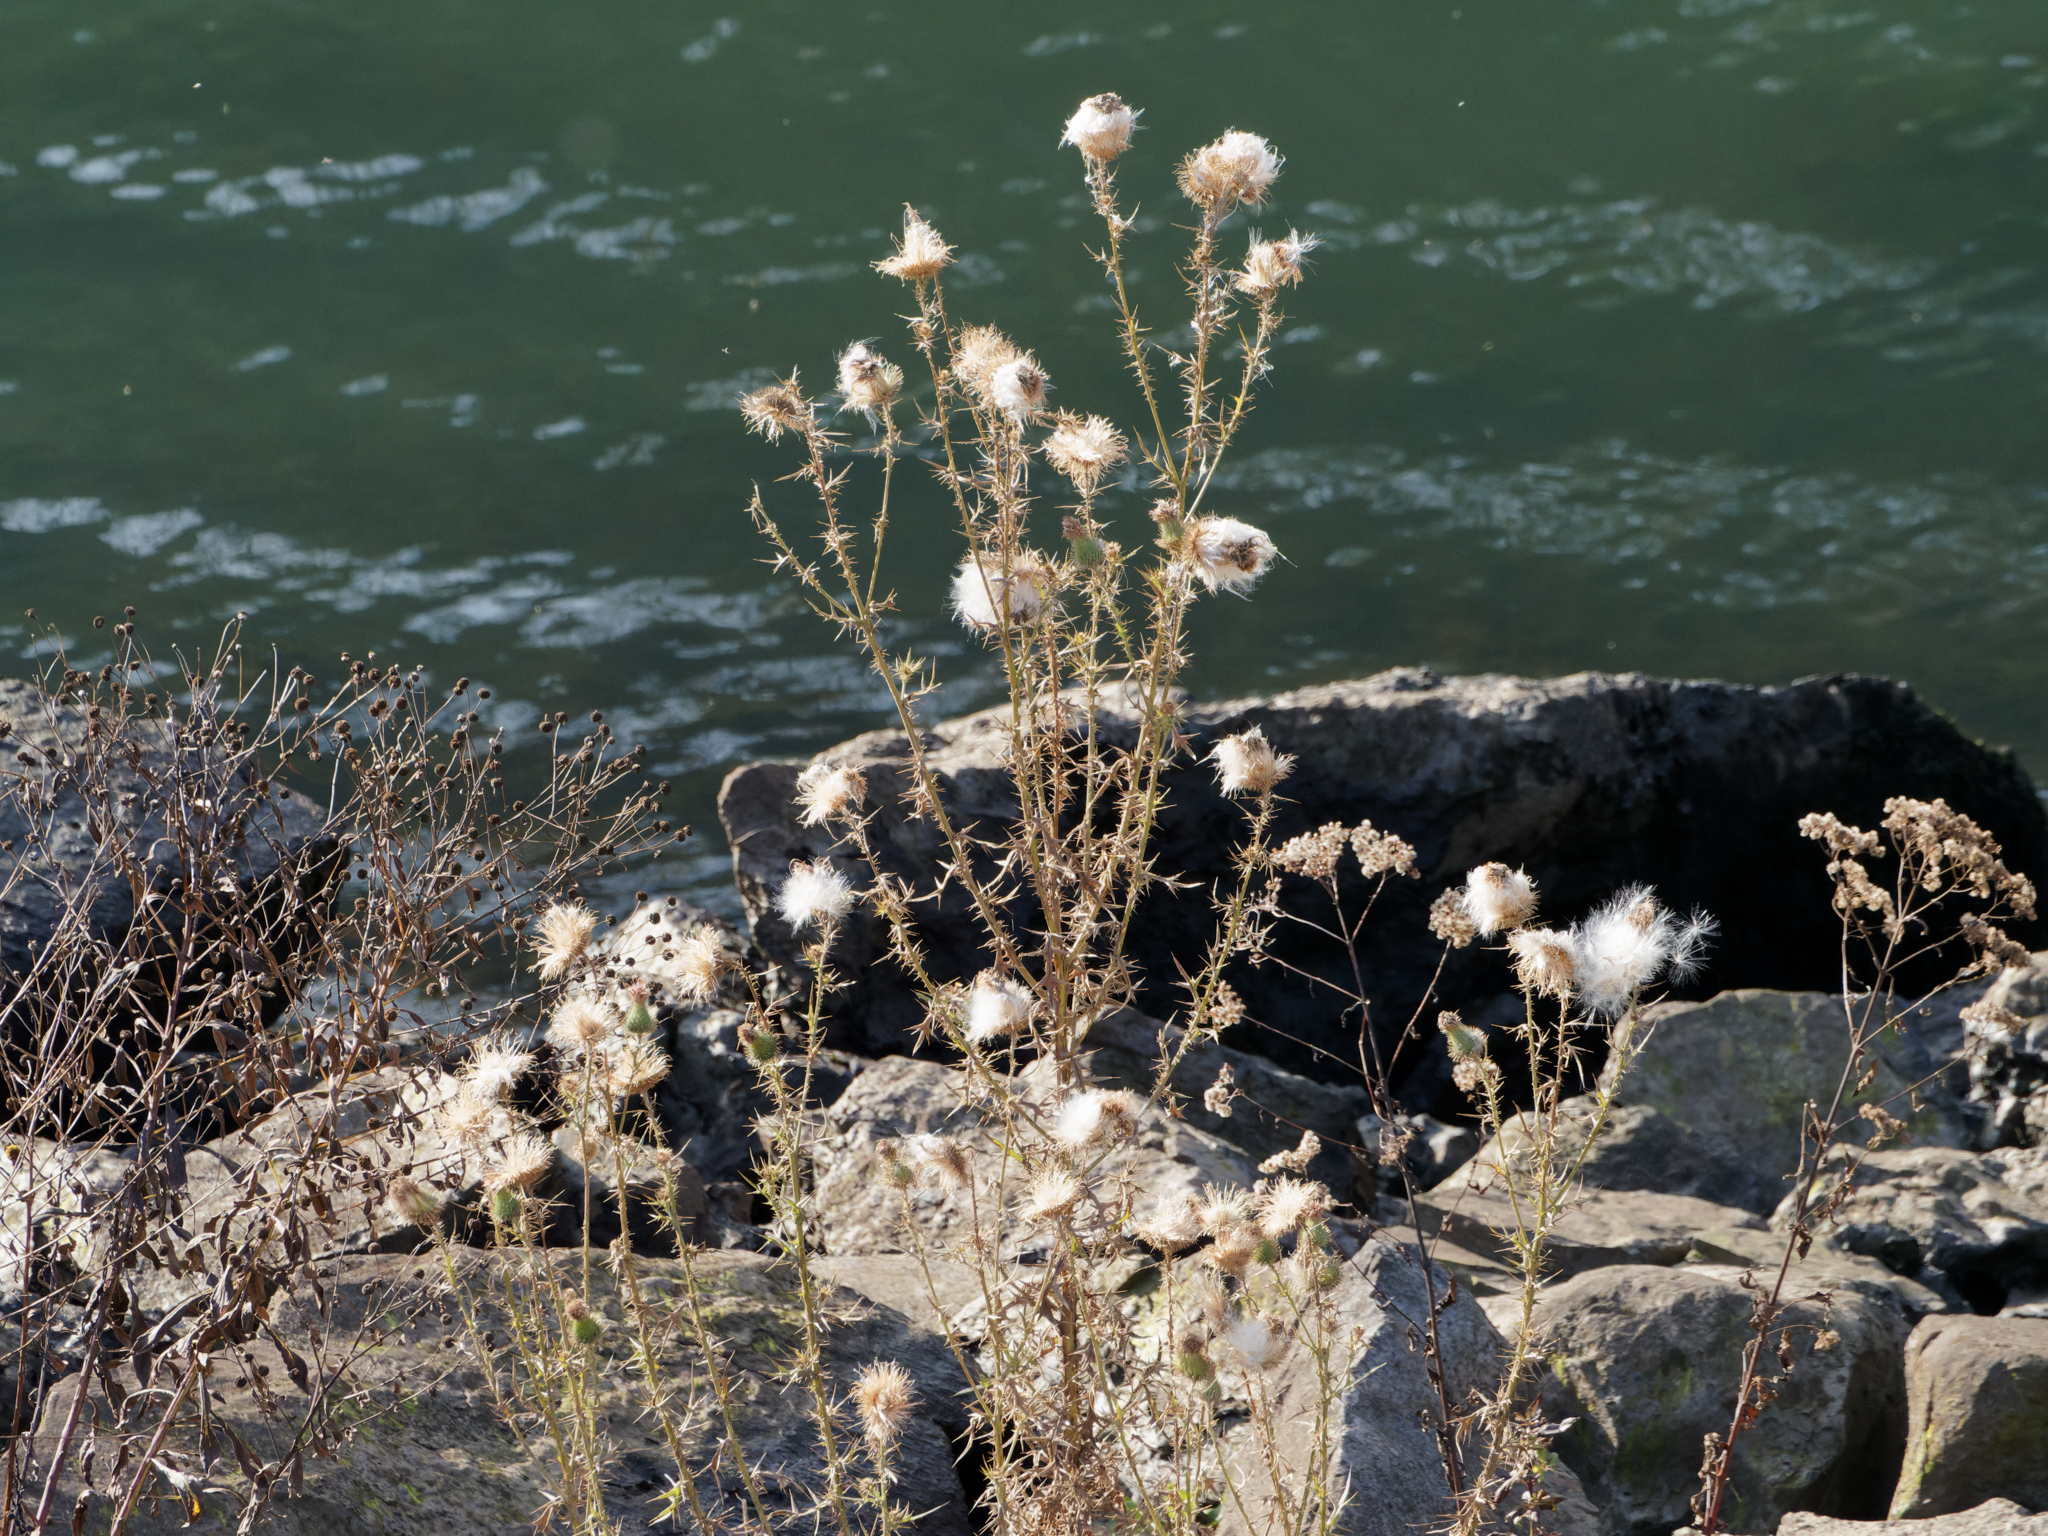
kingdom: Plantae
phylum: Tracheophyta
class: Magnoliopsida
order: Asterales
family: Asteraceae
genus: Cirsium
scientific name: Cirsium vulgare
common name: Bull thistle
